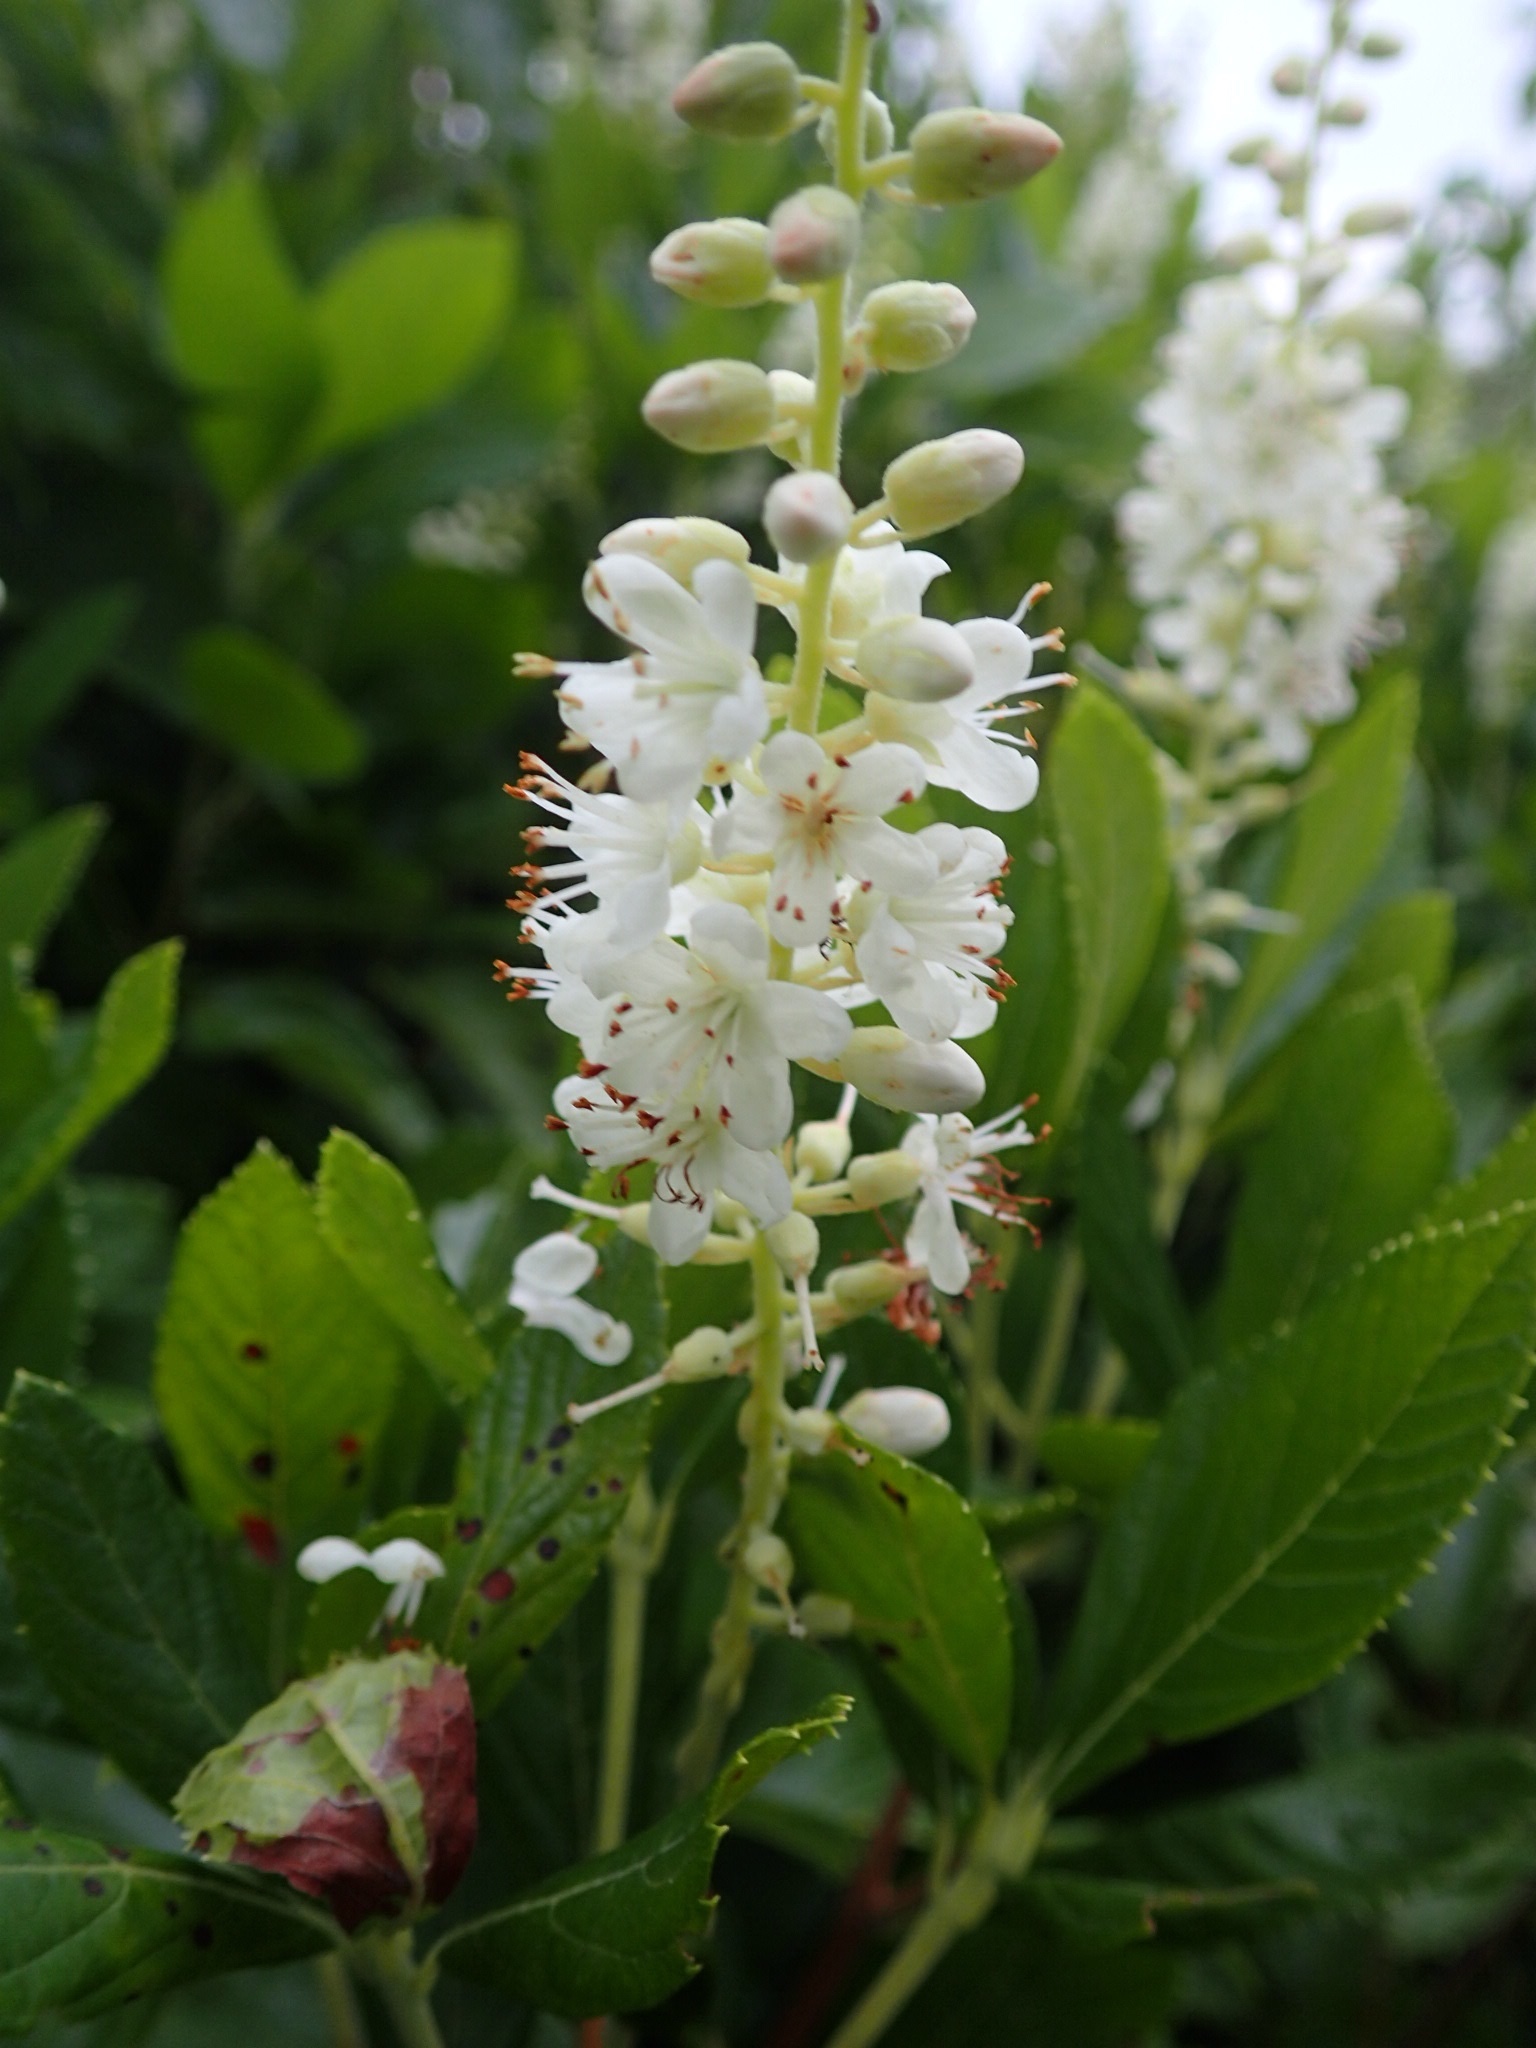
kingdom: Plantae
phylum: Tracheophyta
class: Magnoliopsida
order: Ericales
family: Clethraceae
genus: Clethra
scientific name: Clethra alnifolia
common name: Sweet pepperbush
